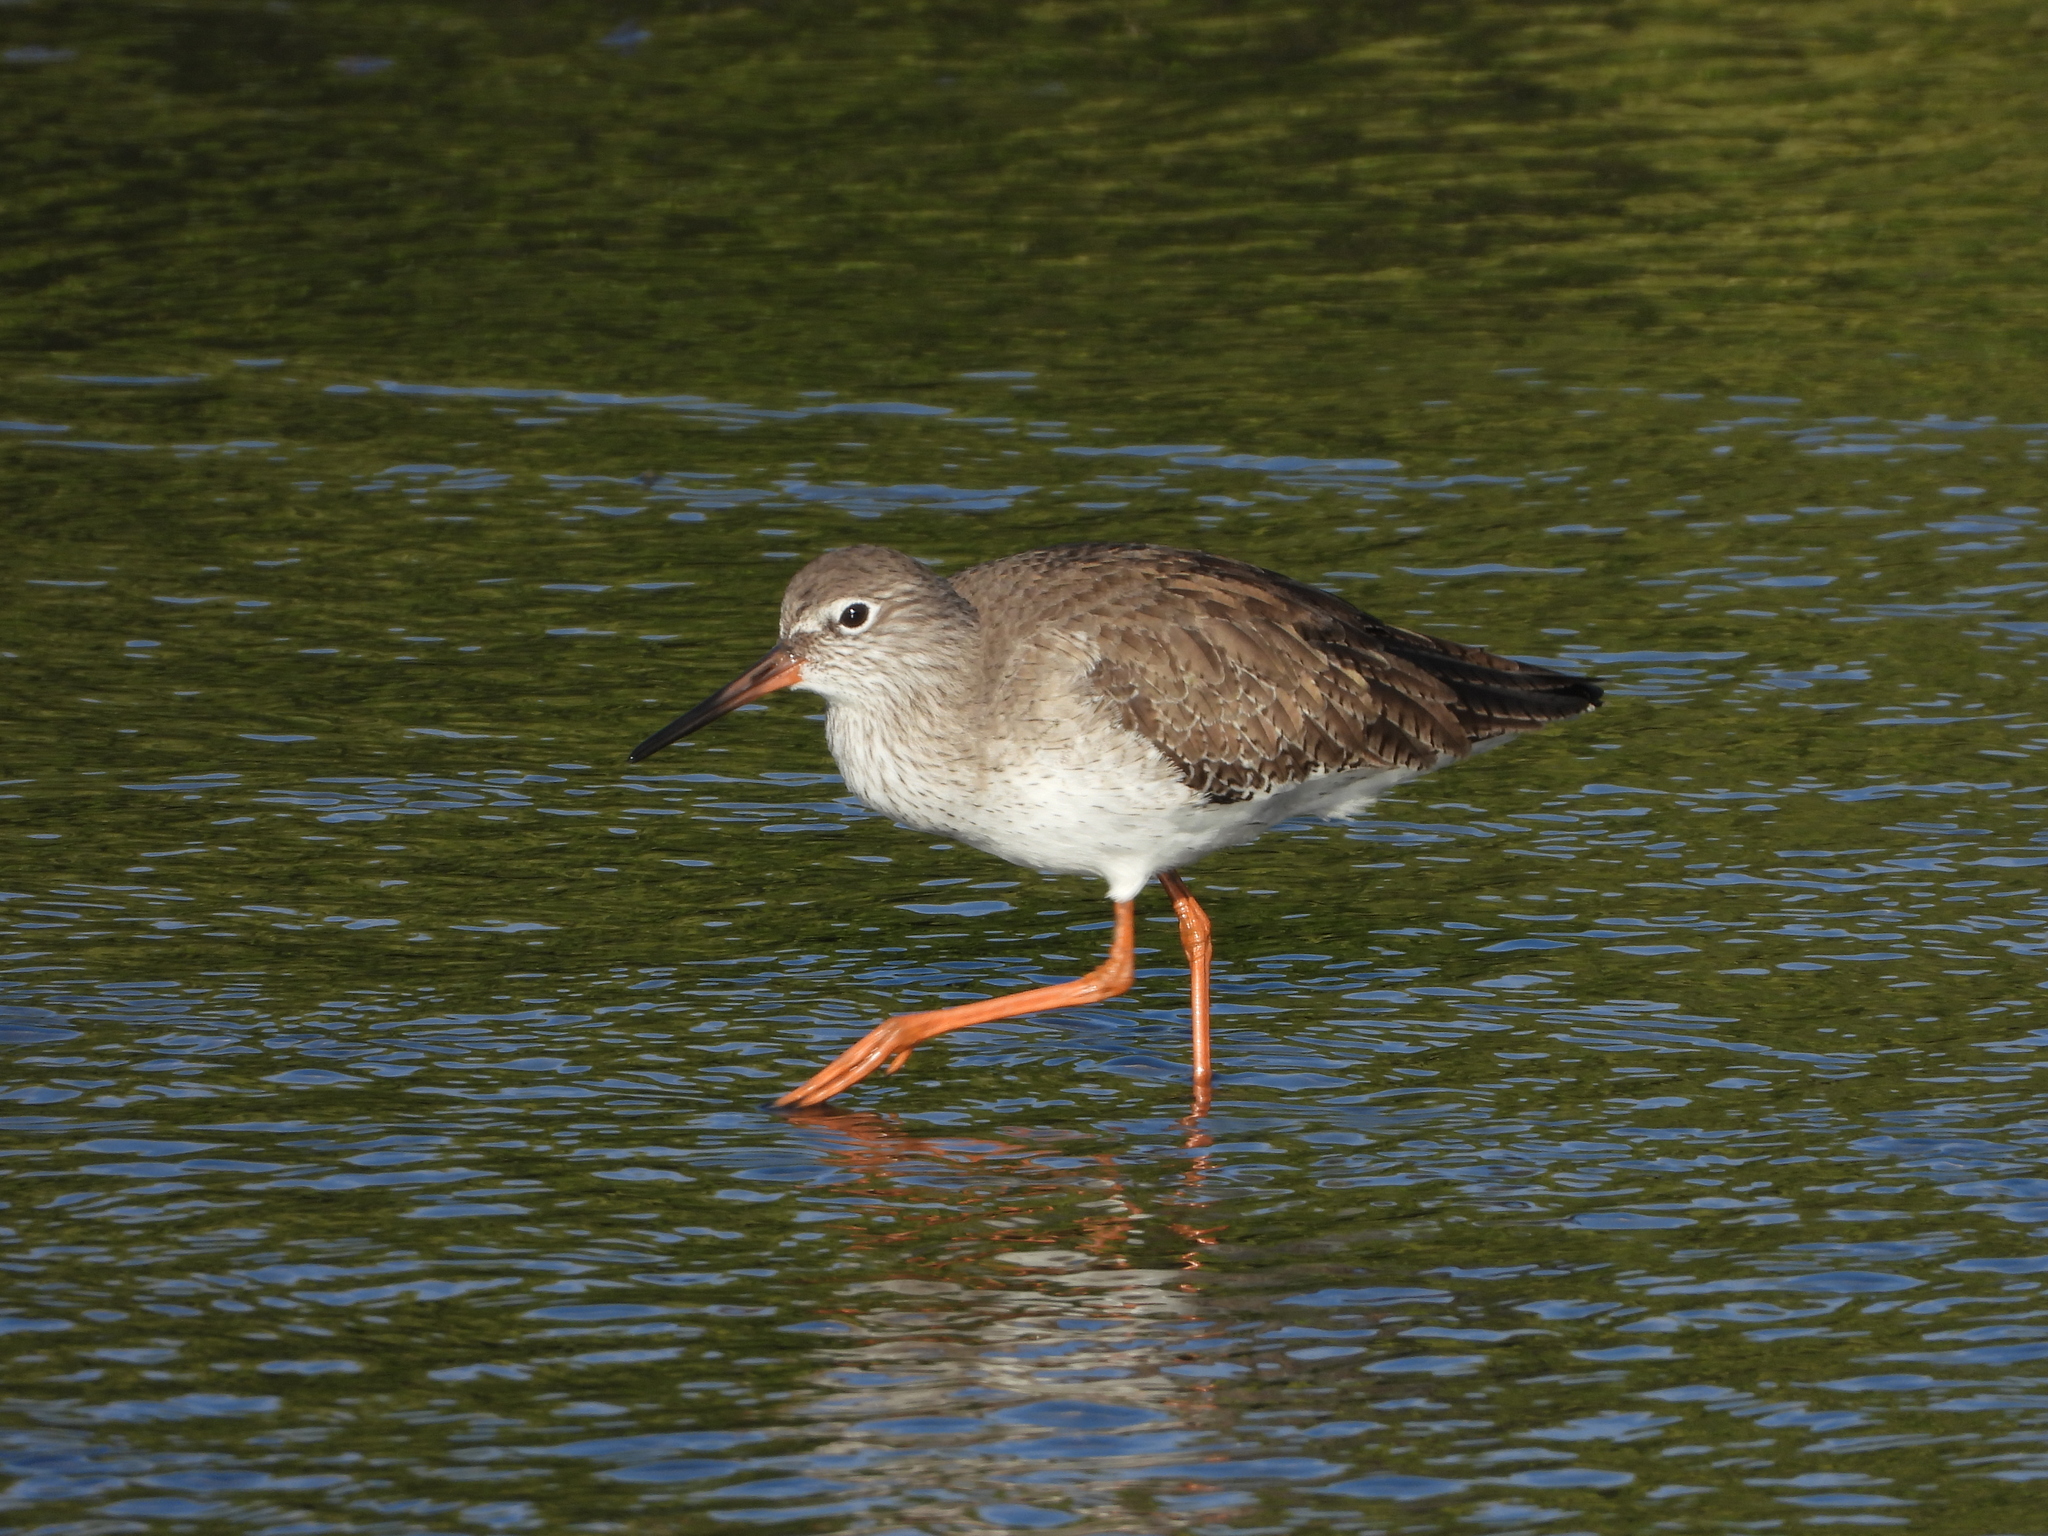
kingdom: Animalia
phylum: Chordata
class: Aves
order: Charadriiformes
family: Scolopacidae
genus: Tringa
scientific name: Tringa totanus
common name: Common redshank
